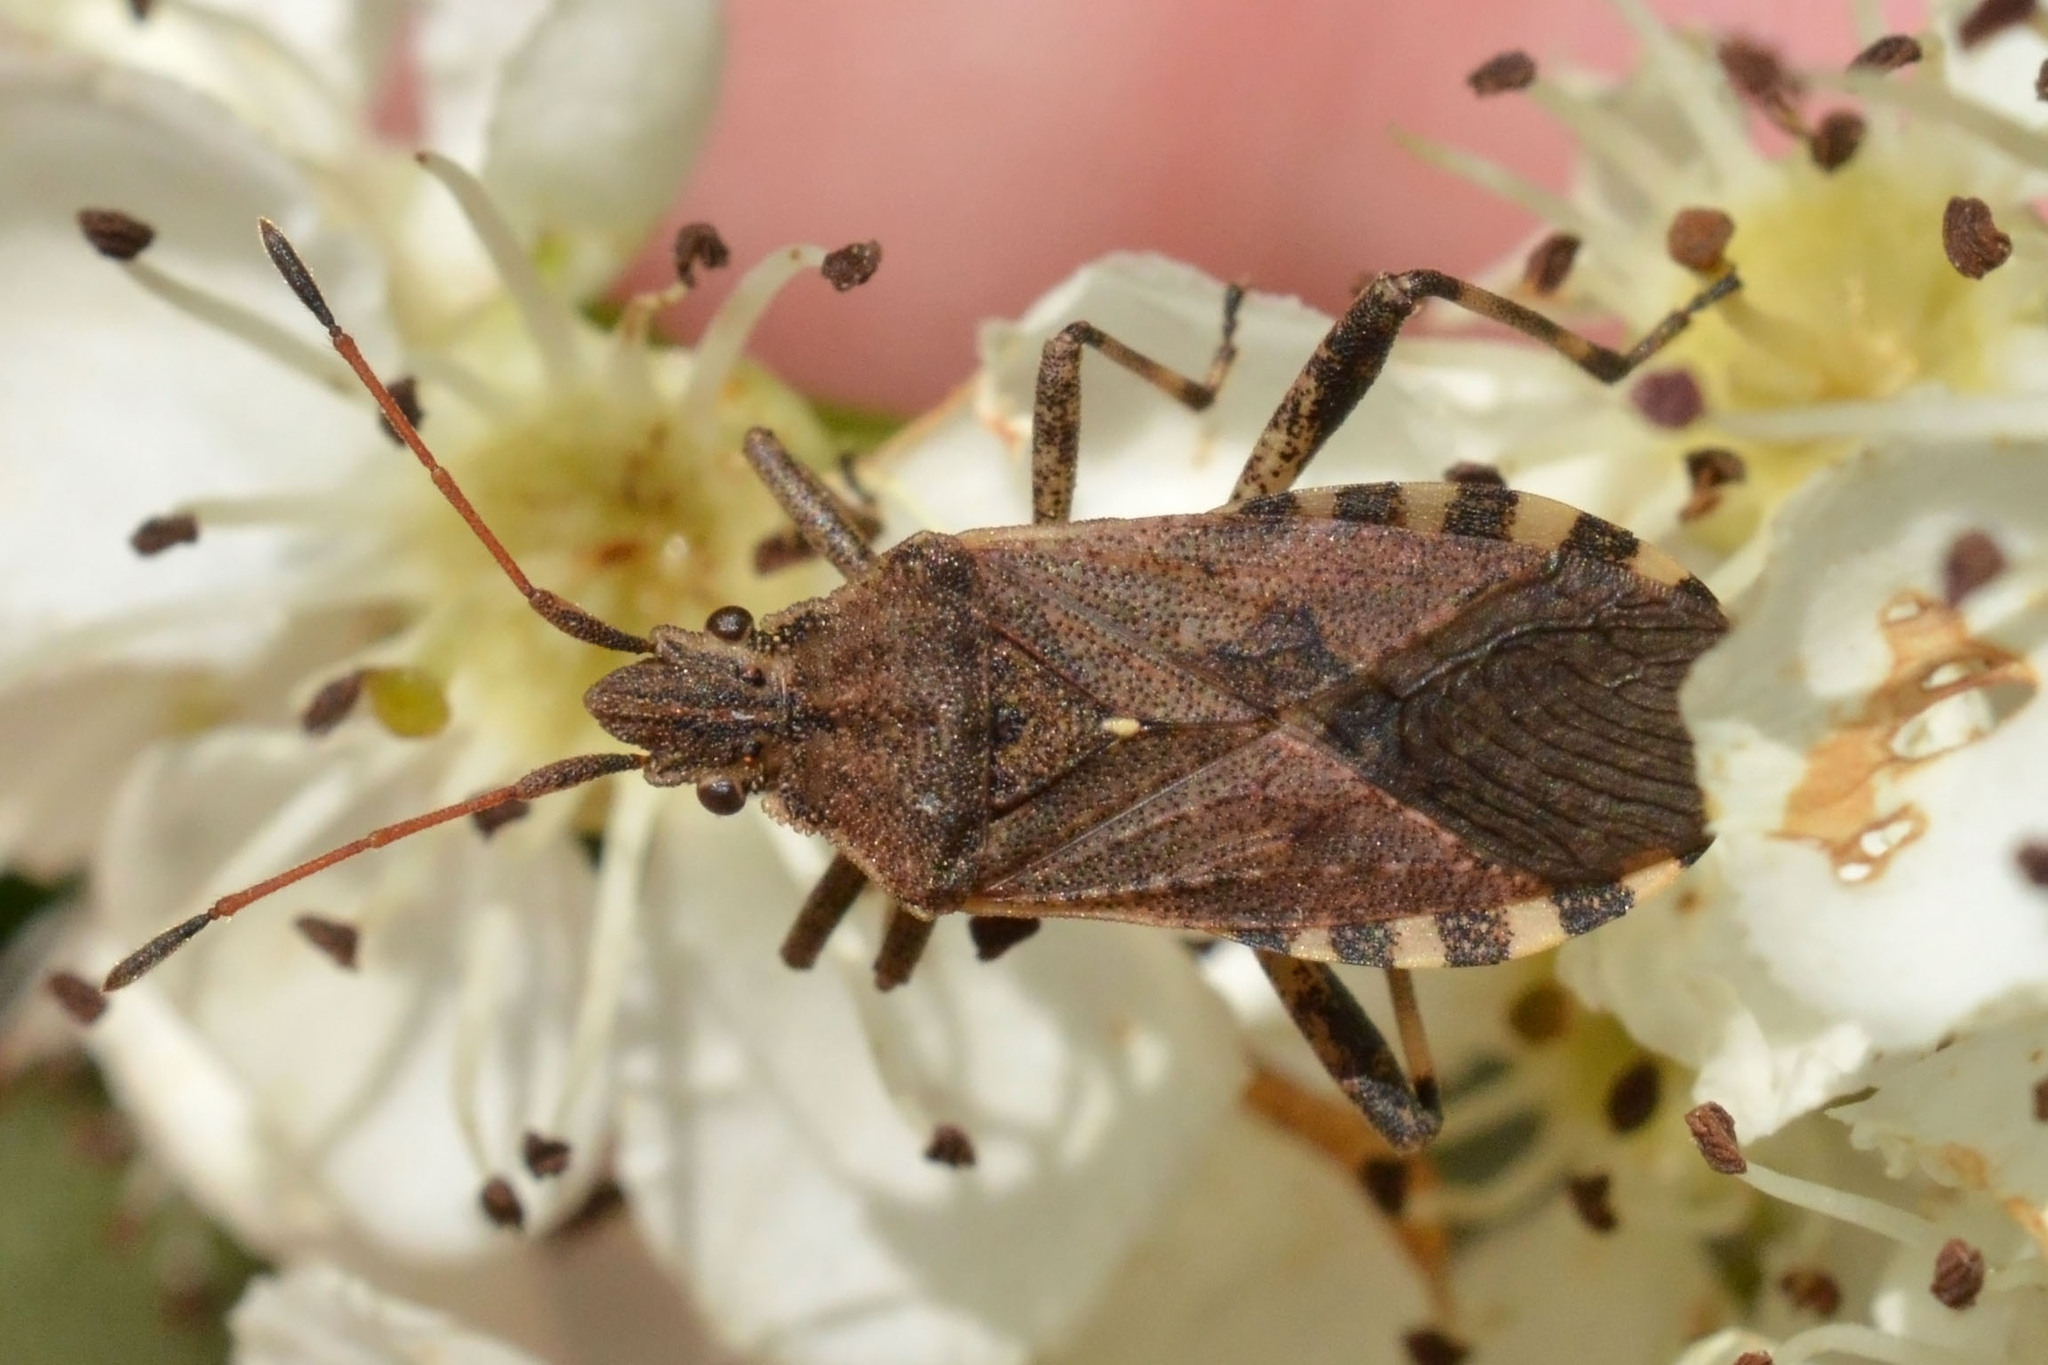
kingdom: Animalia
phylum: Arthropoda
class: Insecta
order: Hemiptera
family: Coreidae
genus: Ceraleptus
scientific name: Ceraleptus gracilicornis
